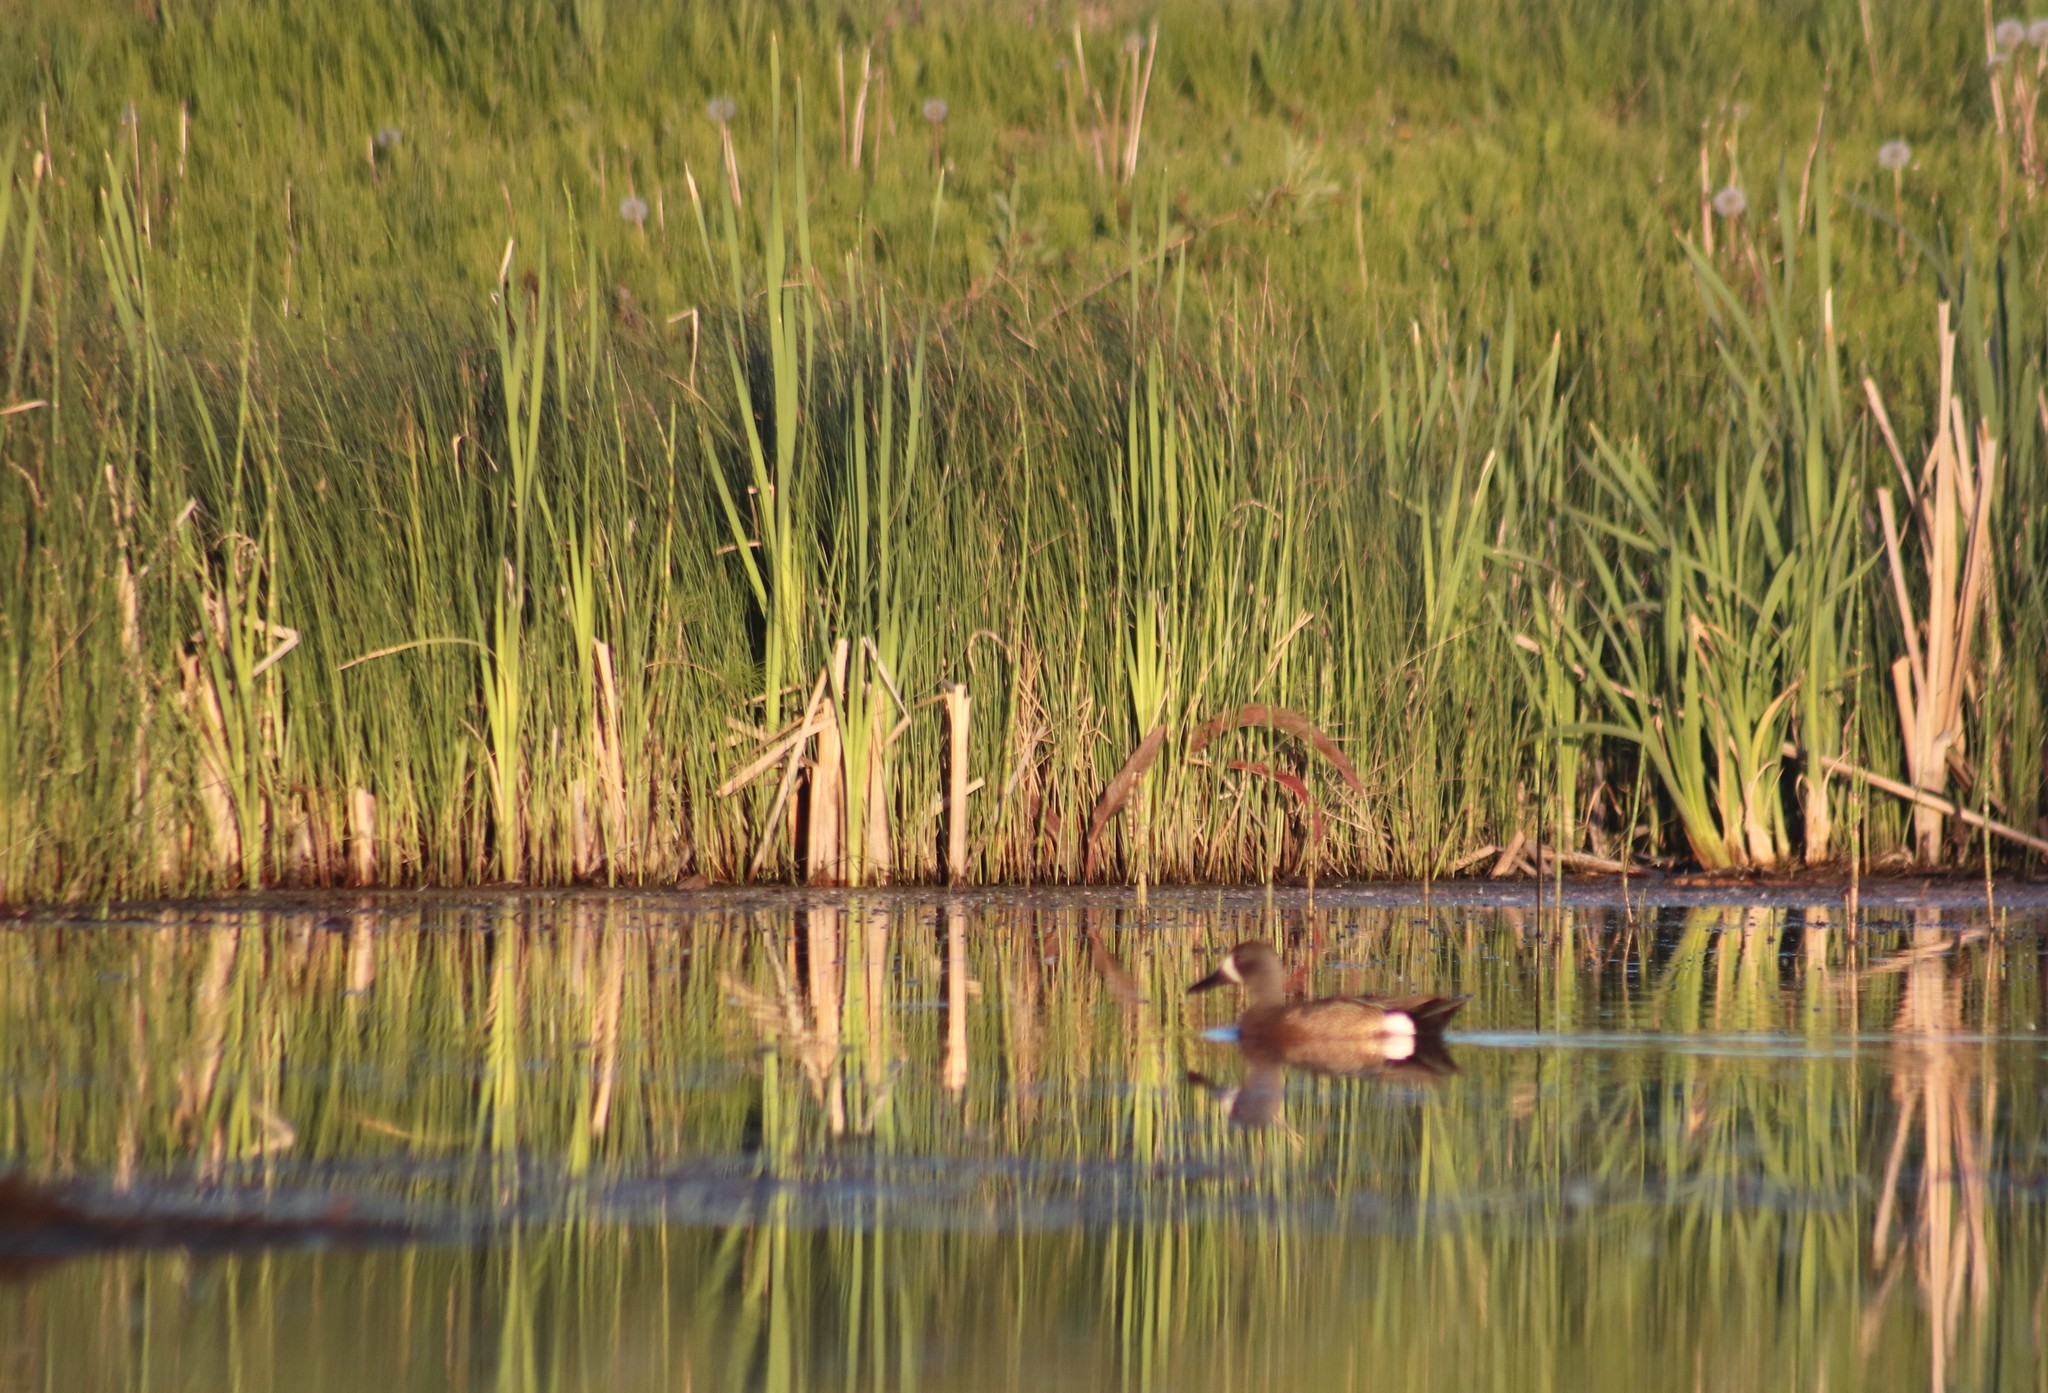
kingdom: Animalia
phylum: Chordata
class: Aves
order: Anseriformes
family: Anatidae
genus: Spatula
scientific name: Spatula discors
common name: Blue-winged teal
